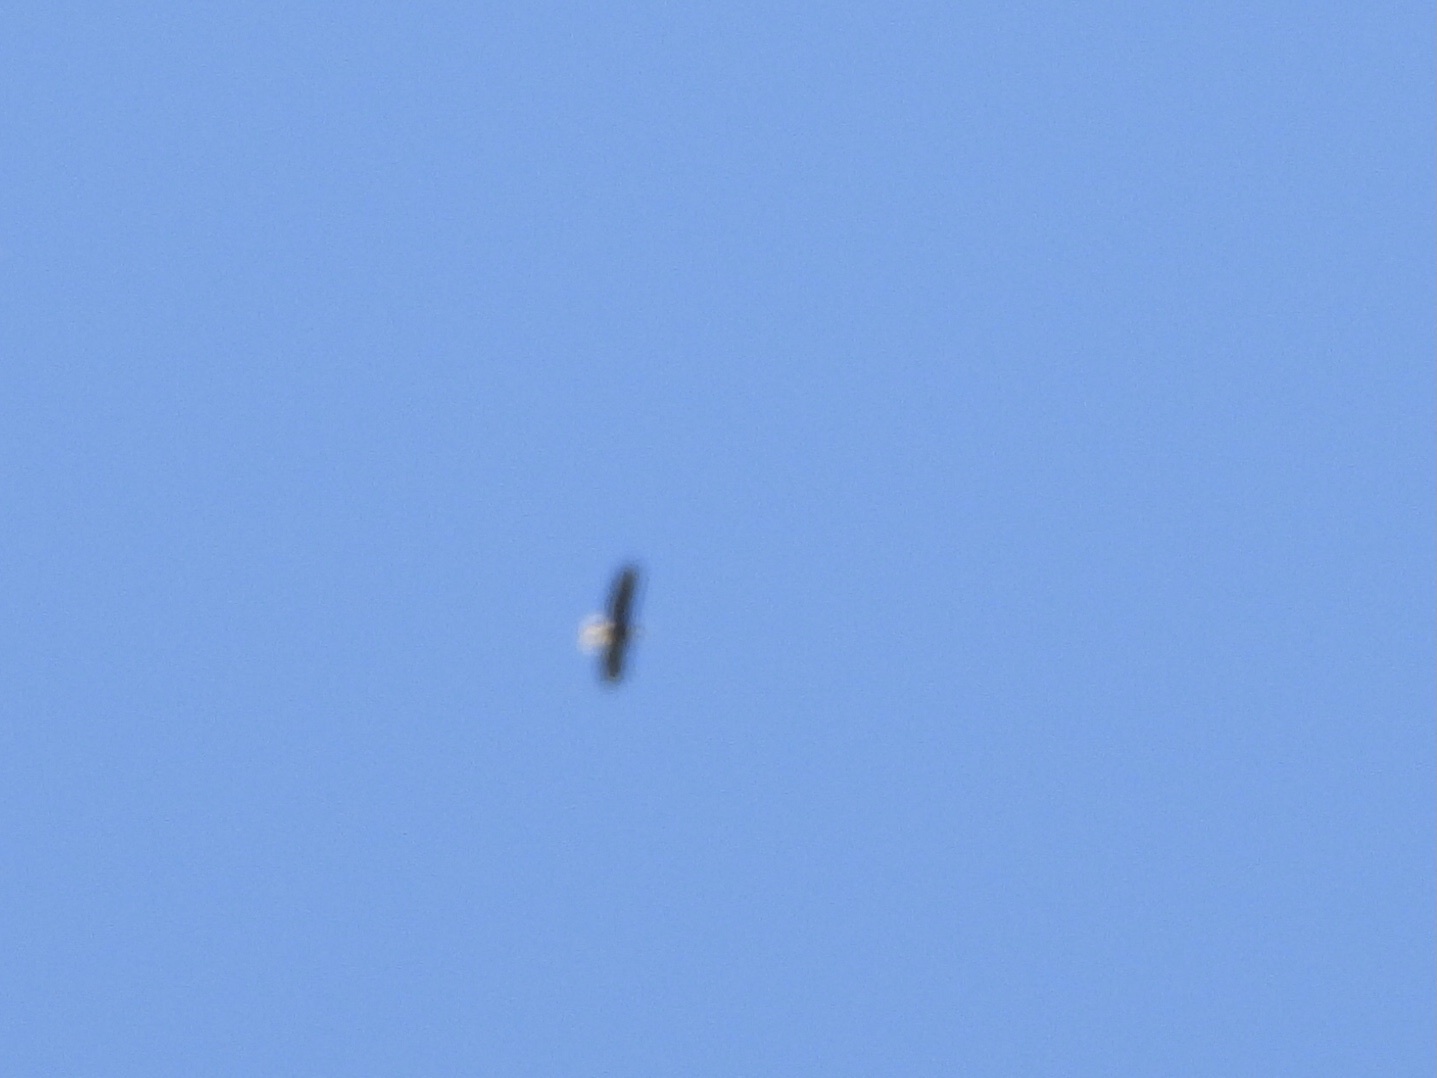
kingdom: Animalia
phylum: Chordata
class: Aves
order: Accipitriformes
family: Accipitridae
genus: Haliaeetus
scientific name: Haliaeetus leucocephalus
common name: Bald eagle
